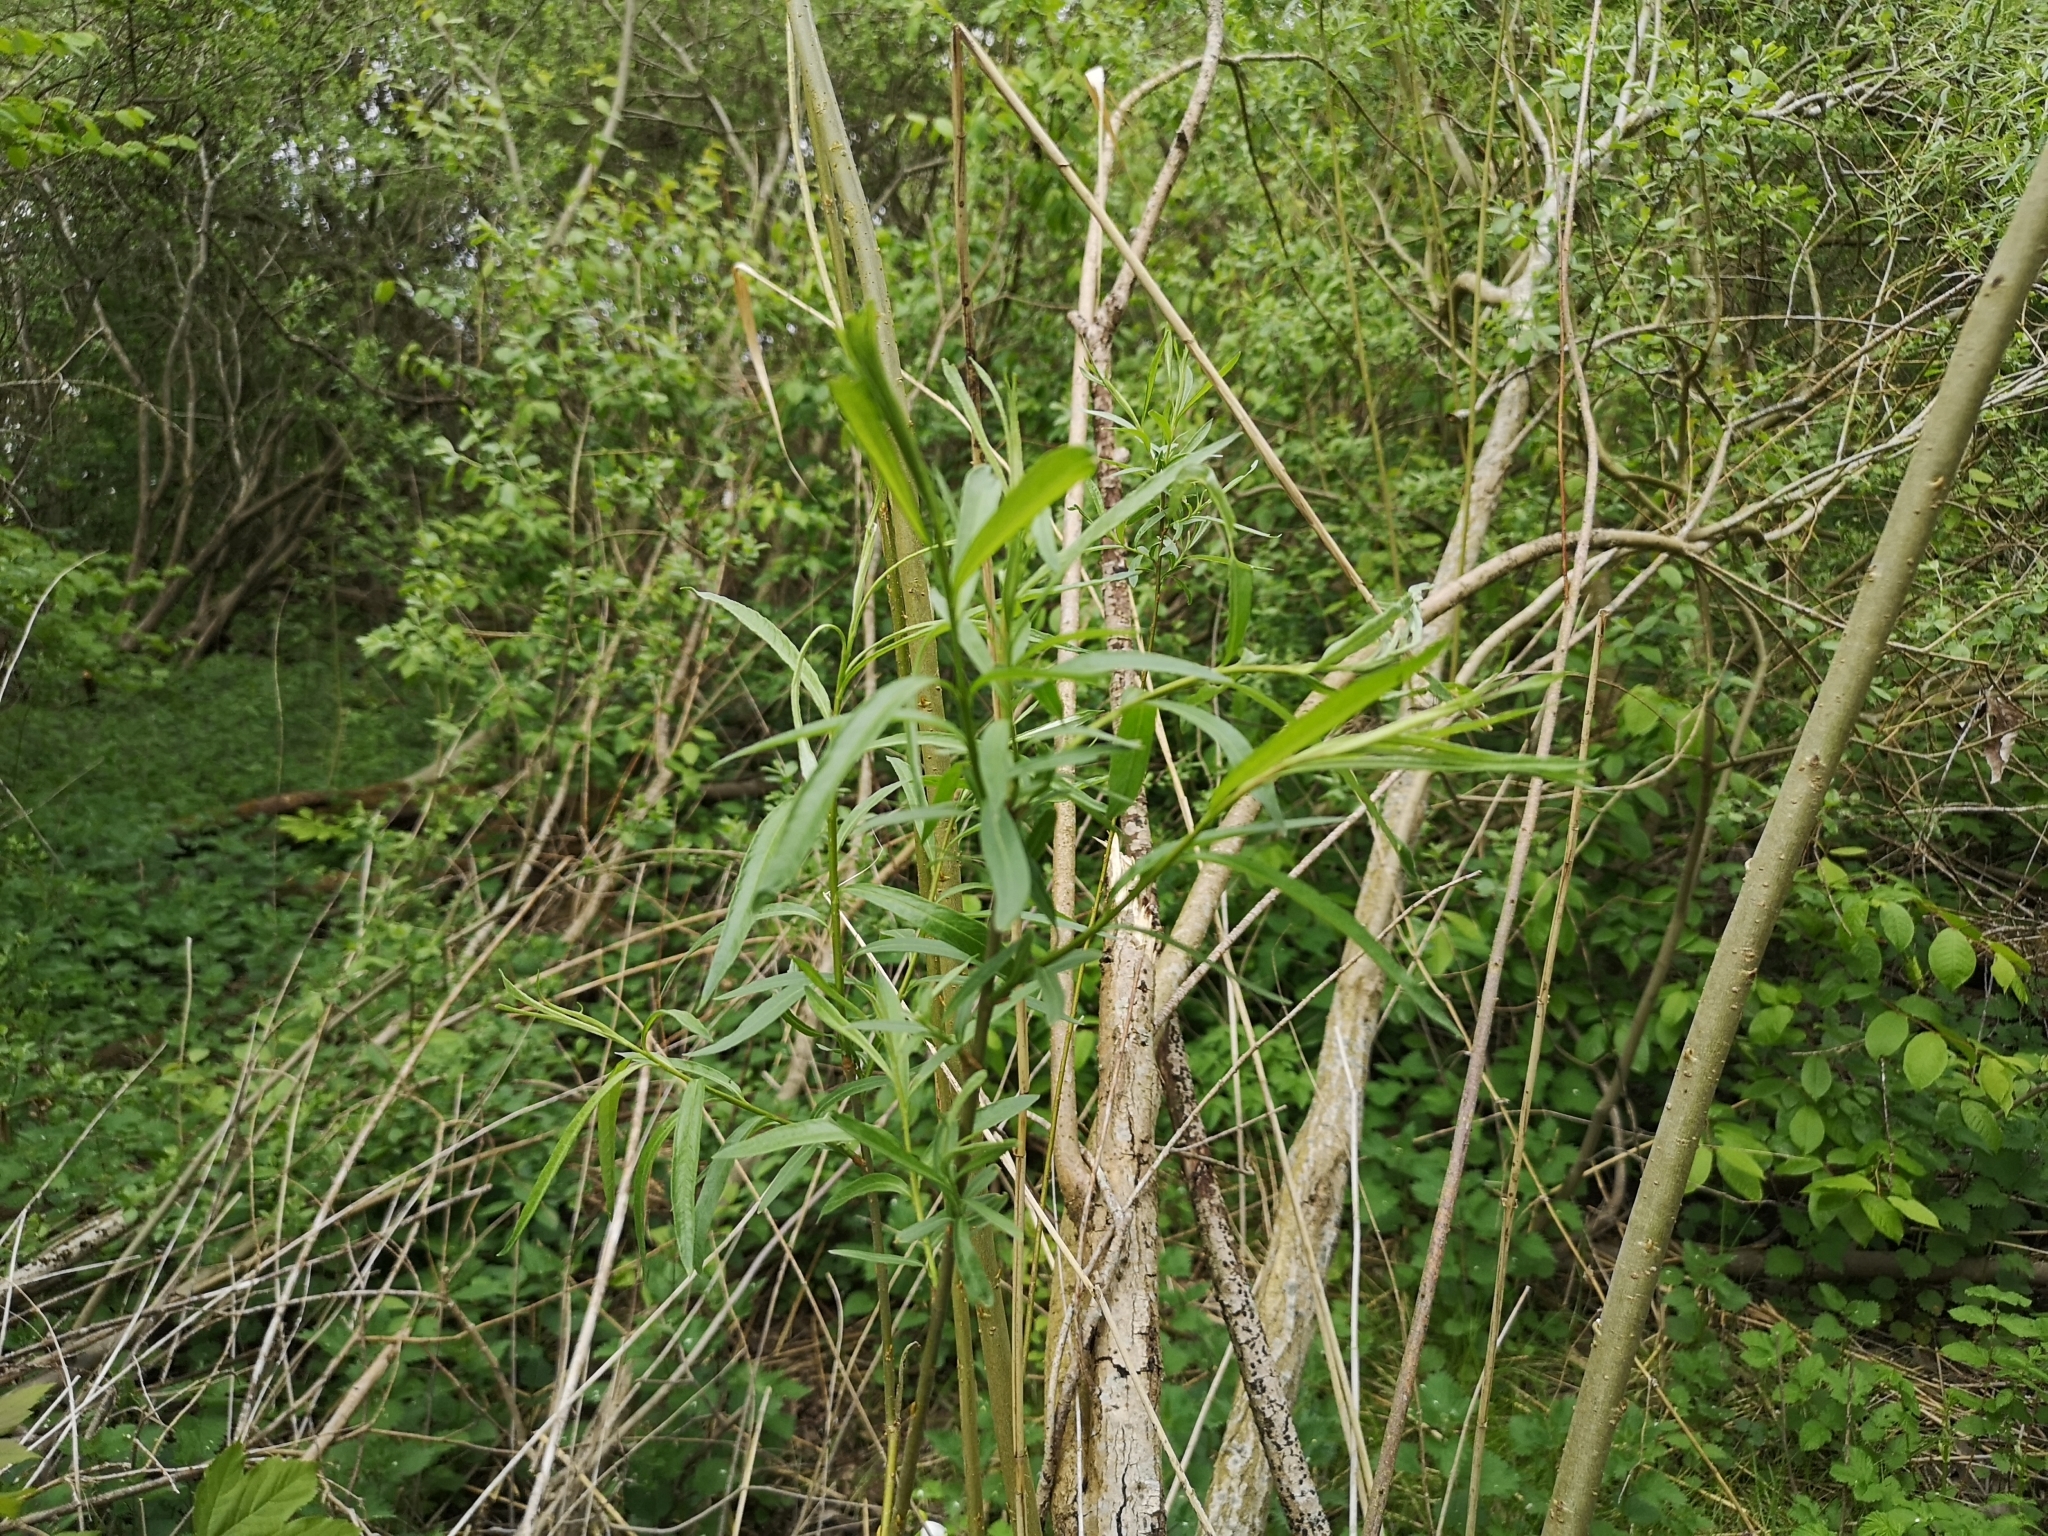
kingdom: Plantae
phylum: Tracheophyta
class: Magnoliopsida
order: Malpighiales
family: Salicaceae
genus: Salix
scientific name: Salix viminalis
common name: Osier
